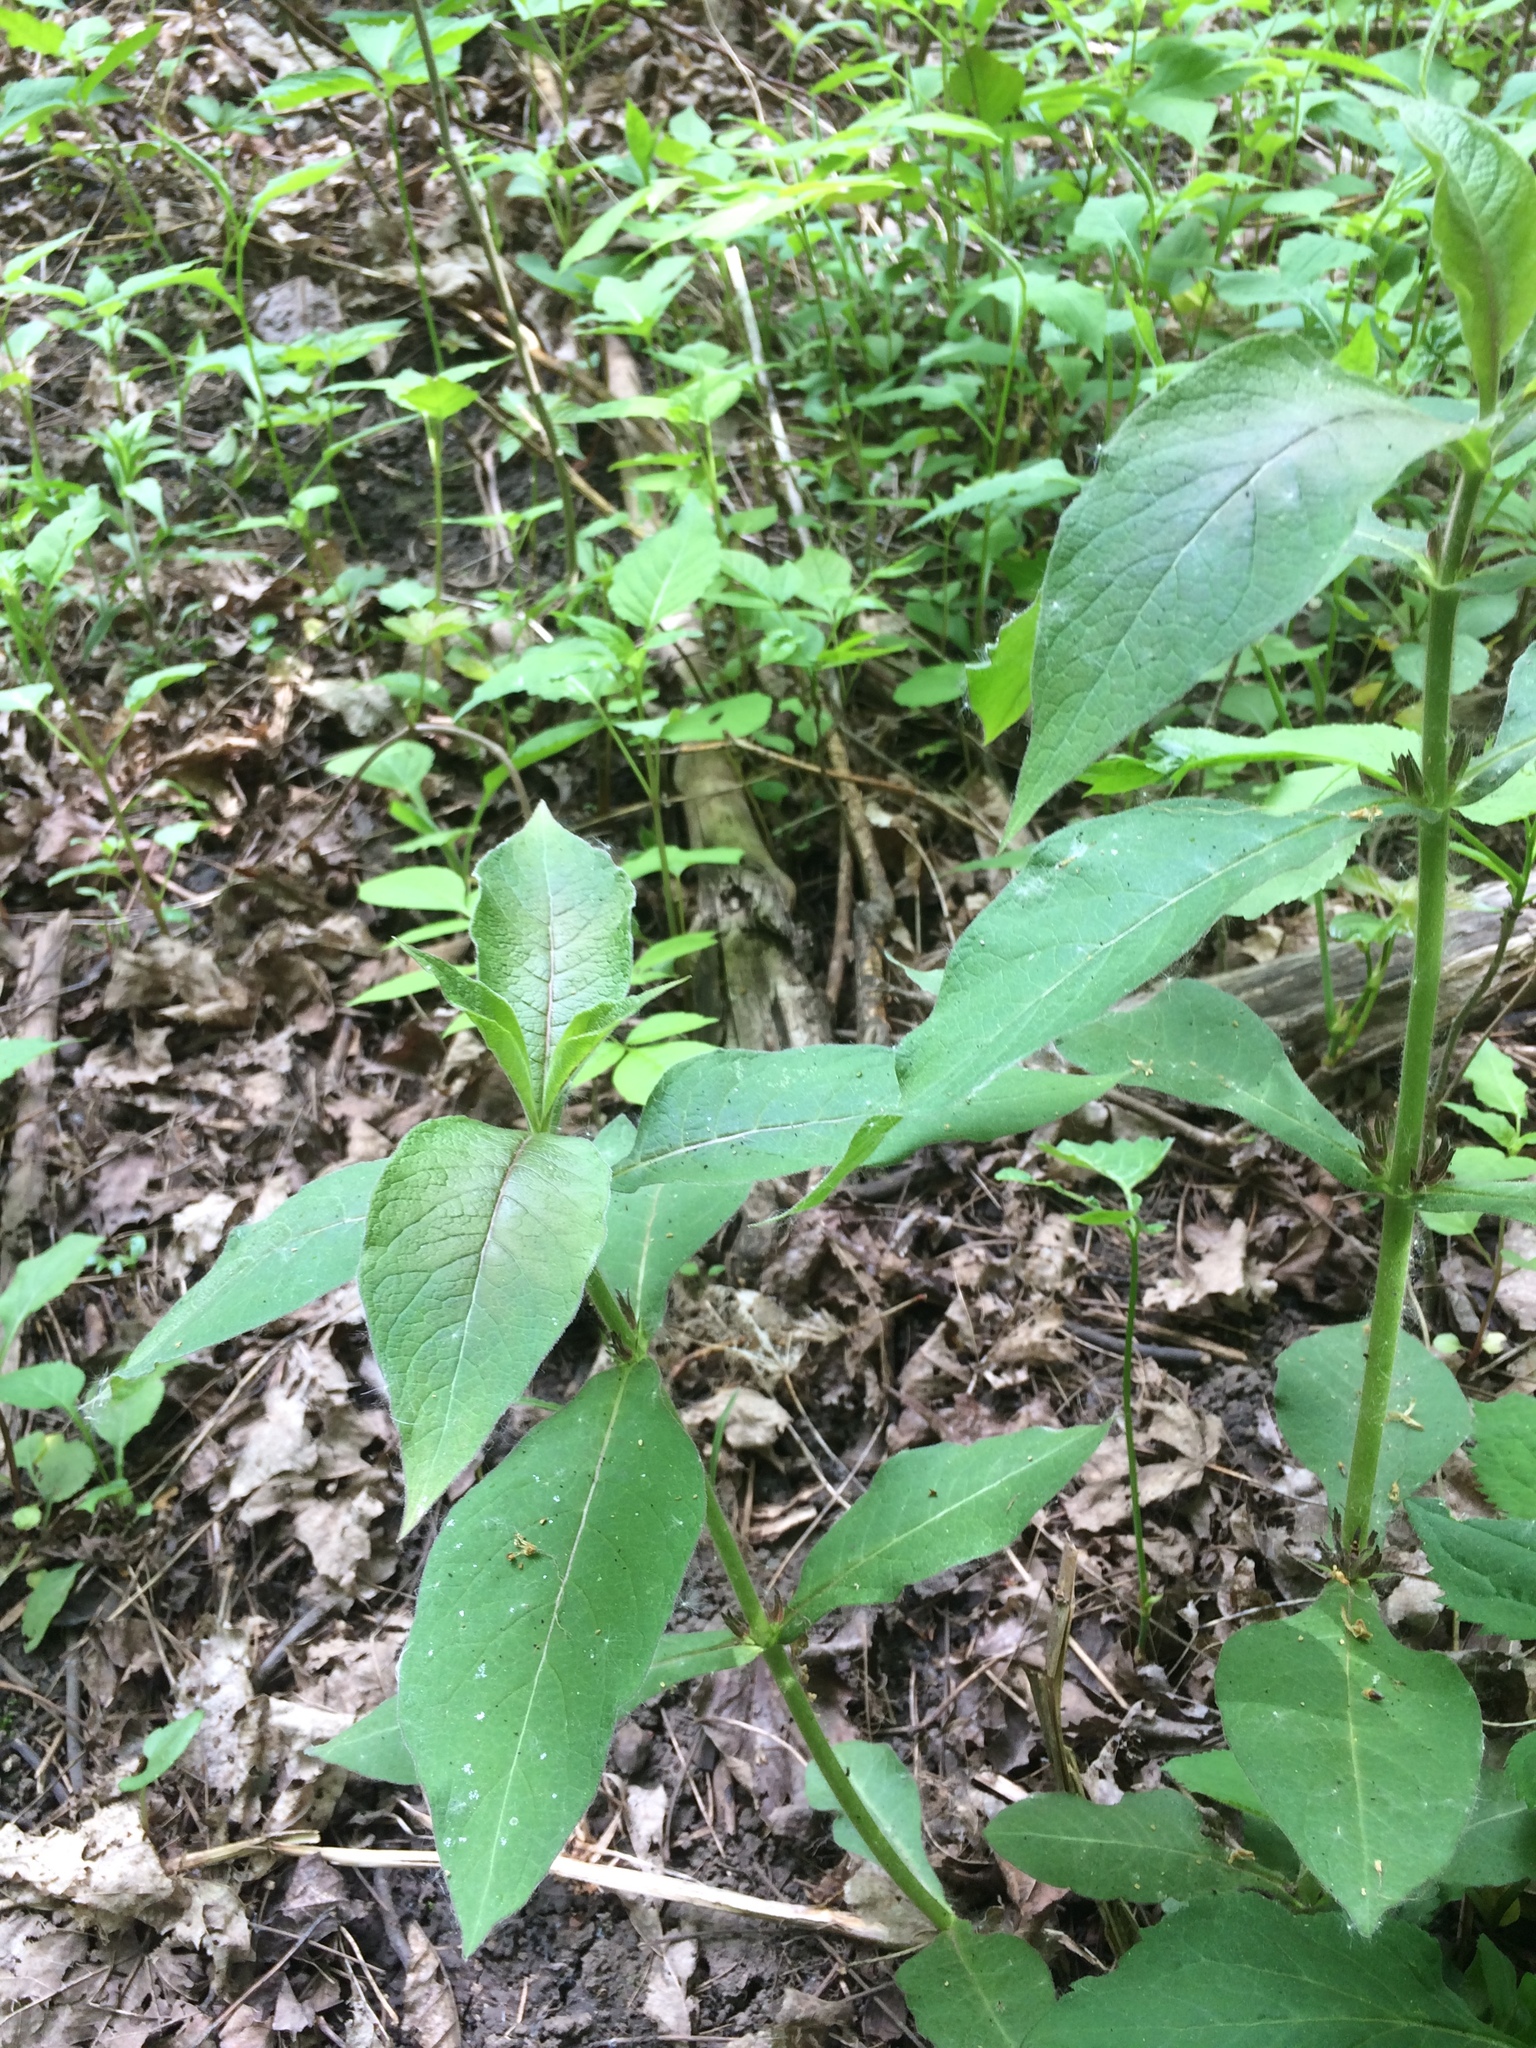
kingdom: Plantae
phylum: Tracheophyta
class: Magnoliopsida
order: Dipsacales
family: Caprifoliaceae
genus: Triosteum
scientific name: Triosteum aurantiacum
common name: Coffee tinker's-weed
